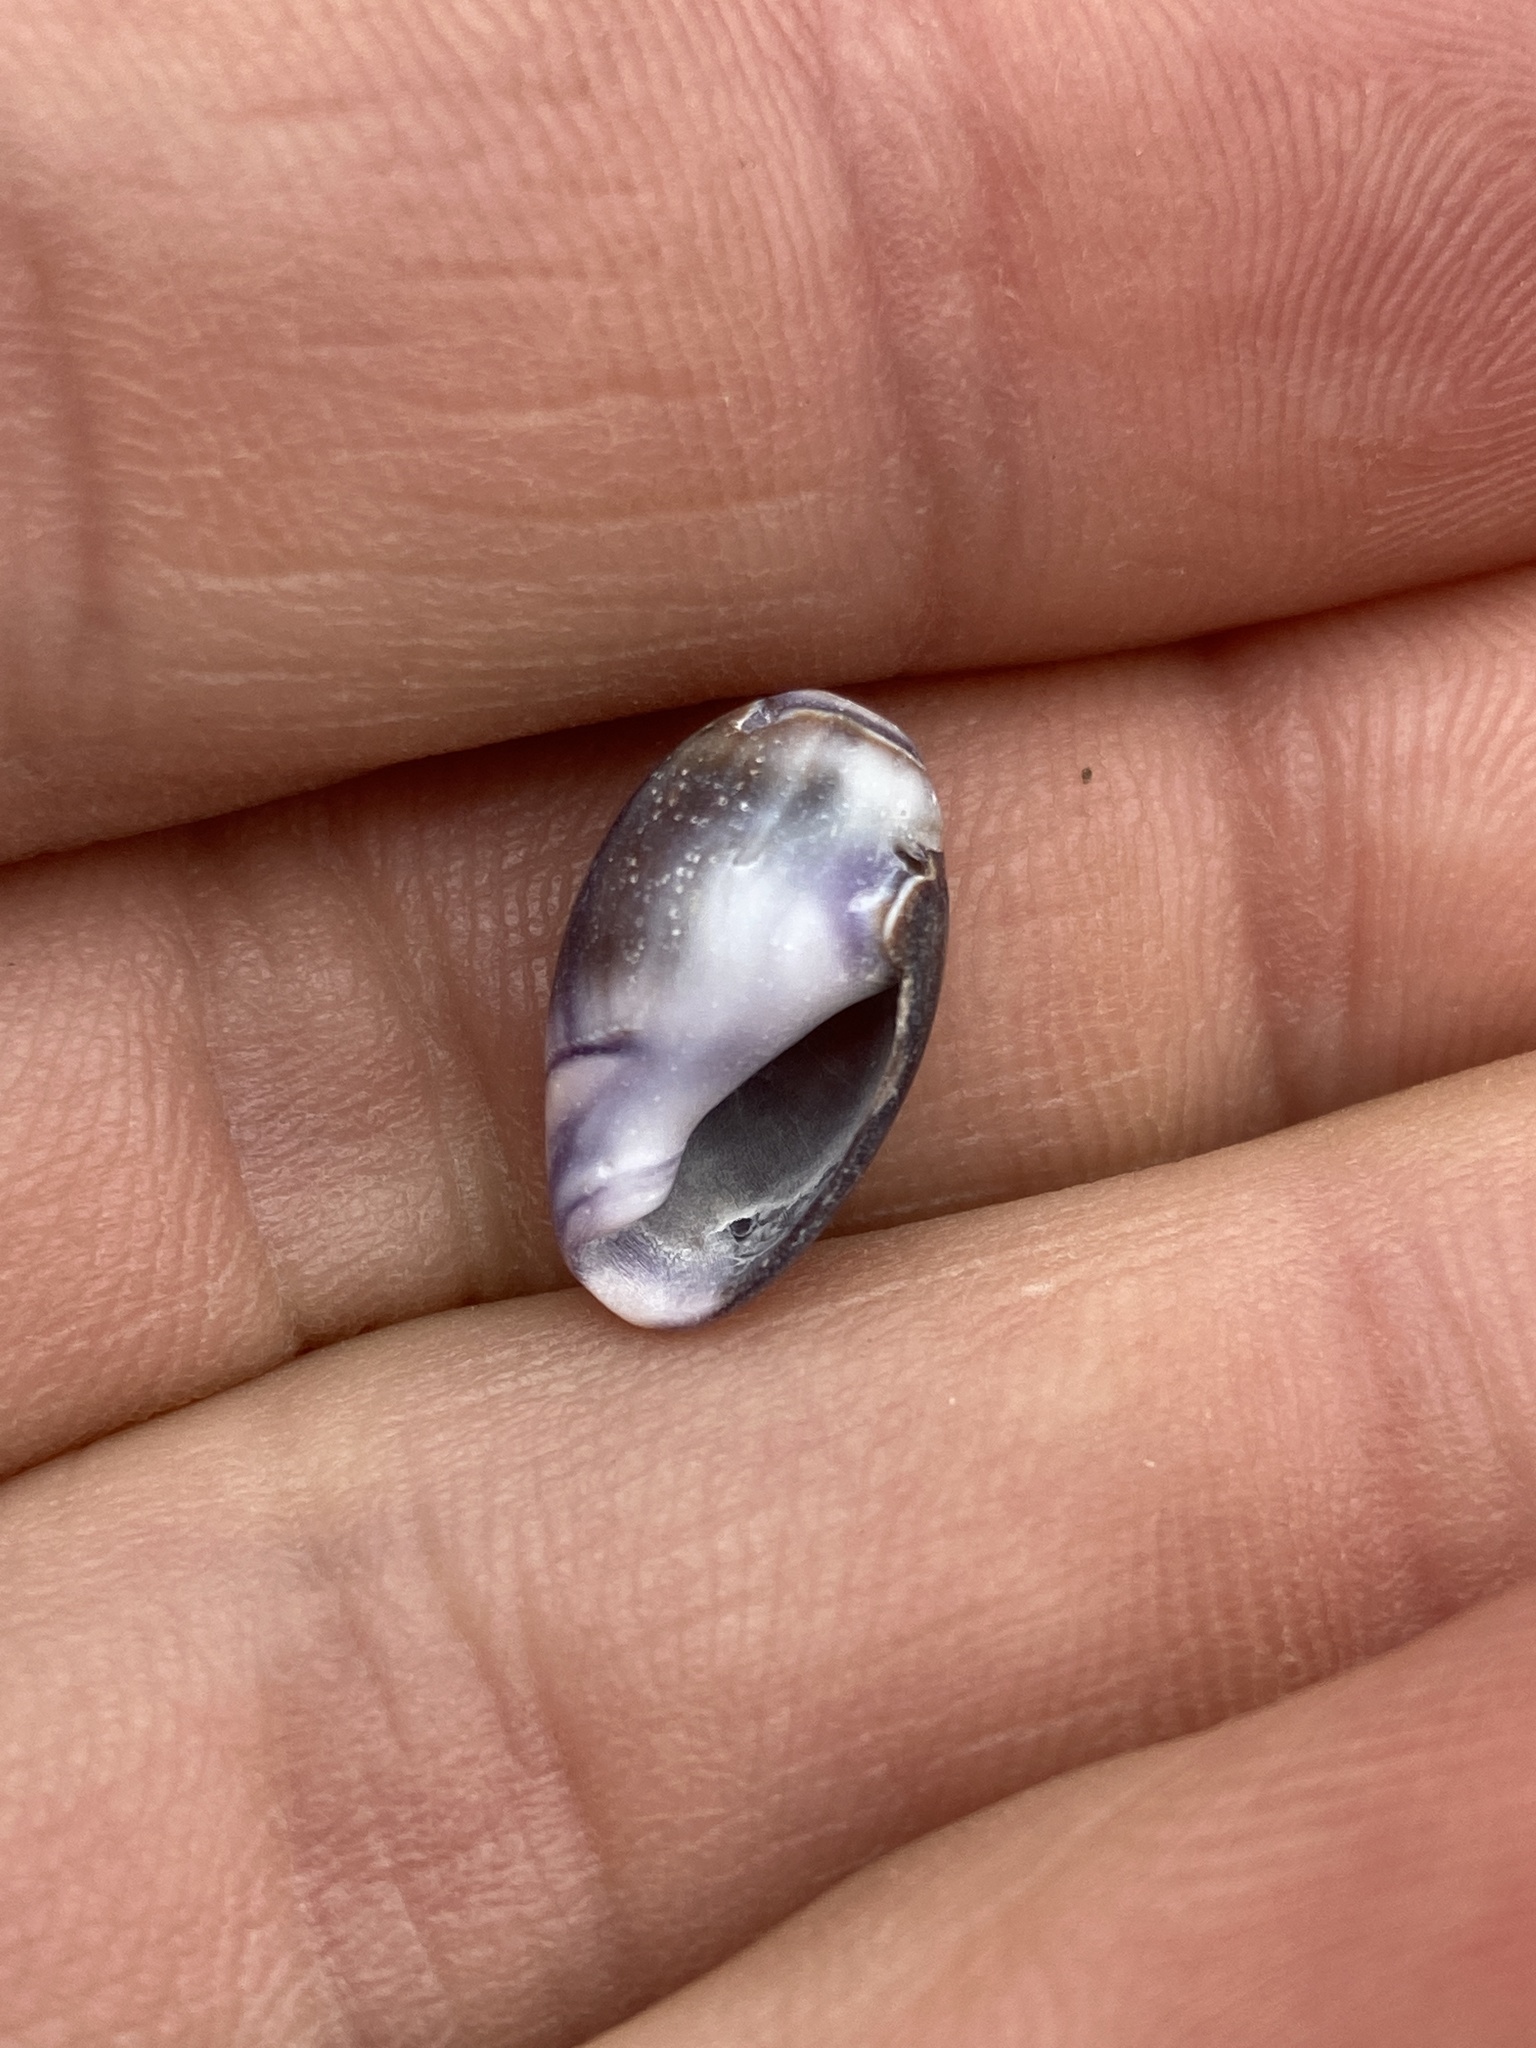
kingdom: Animalia
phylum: Mollusca
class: Gastropoda
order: Neogastropoda
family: Olividae
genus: Callianax
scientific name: Callianax biplicata
